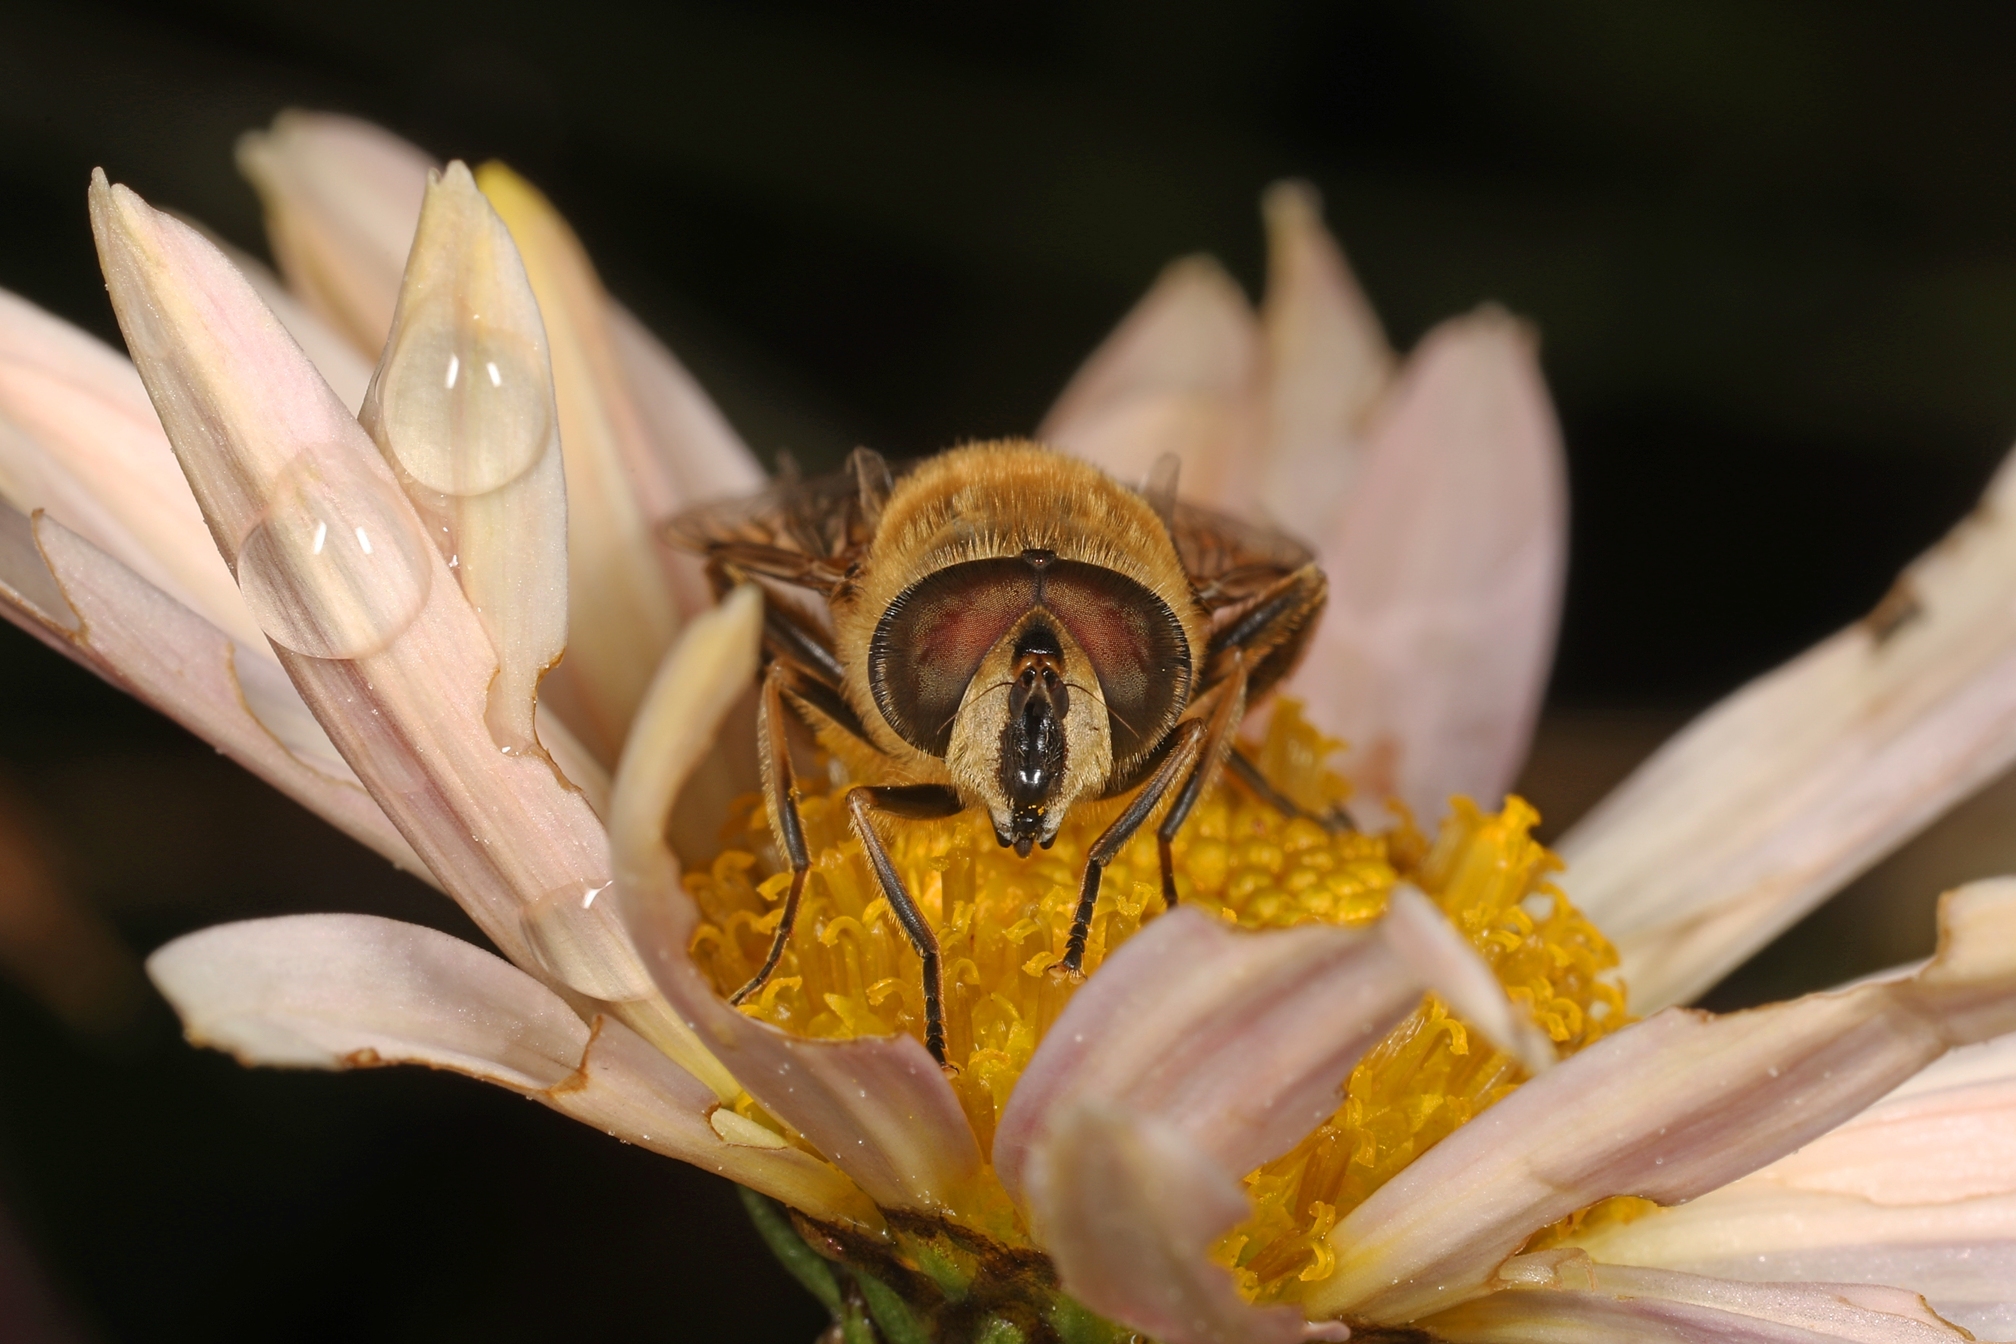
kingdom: Animalia
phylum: Arthropoda
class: Insecta
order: Diptera
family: Syrphidae
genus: Eristalis
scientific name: Eristalis tenax
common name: Drone fly
